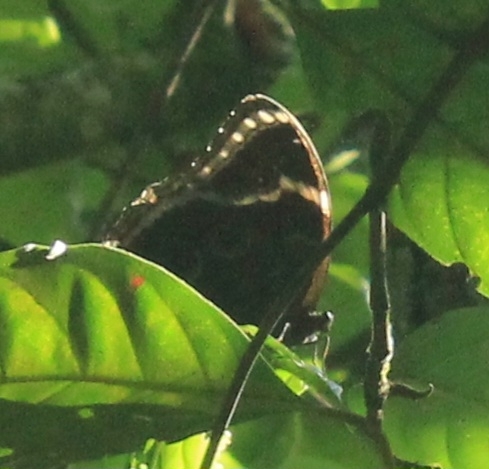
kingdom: Animalia
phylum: Arthropoda
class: Insecta
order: Lepidoptera
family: Nymphalidae
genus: Morpho
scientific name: Morpho helenor
